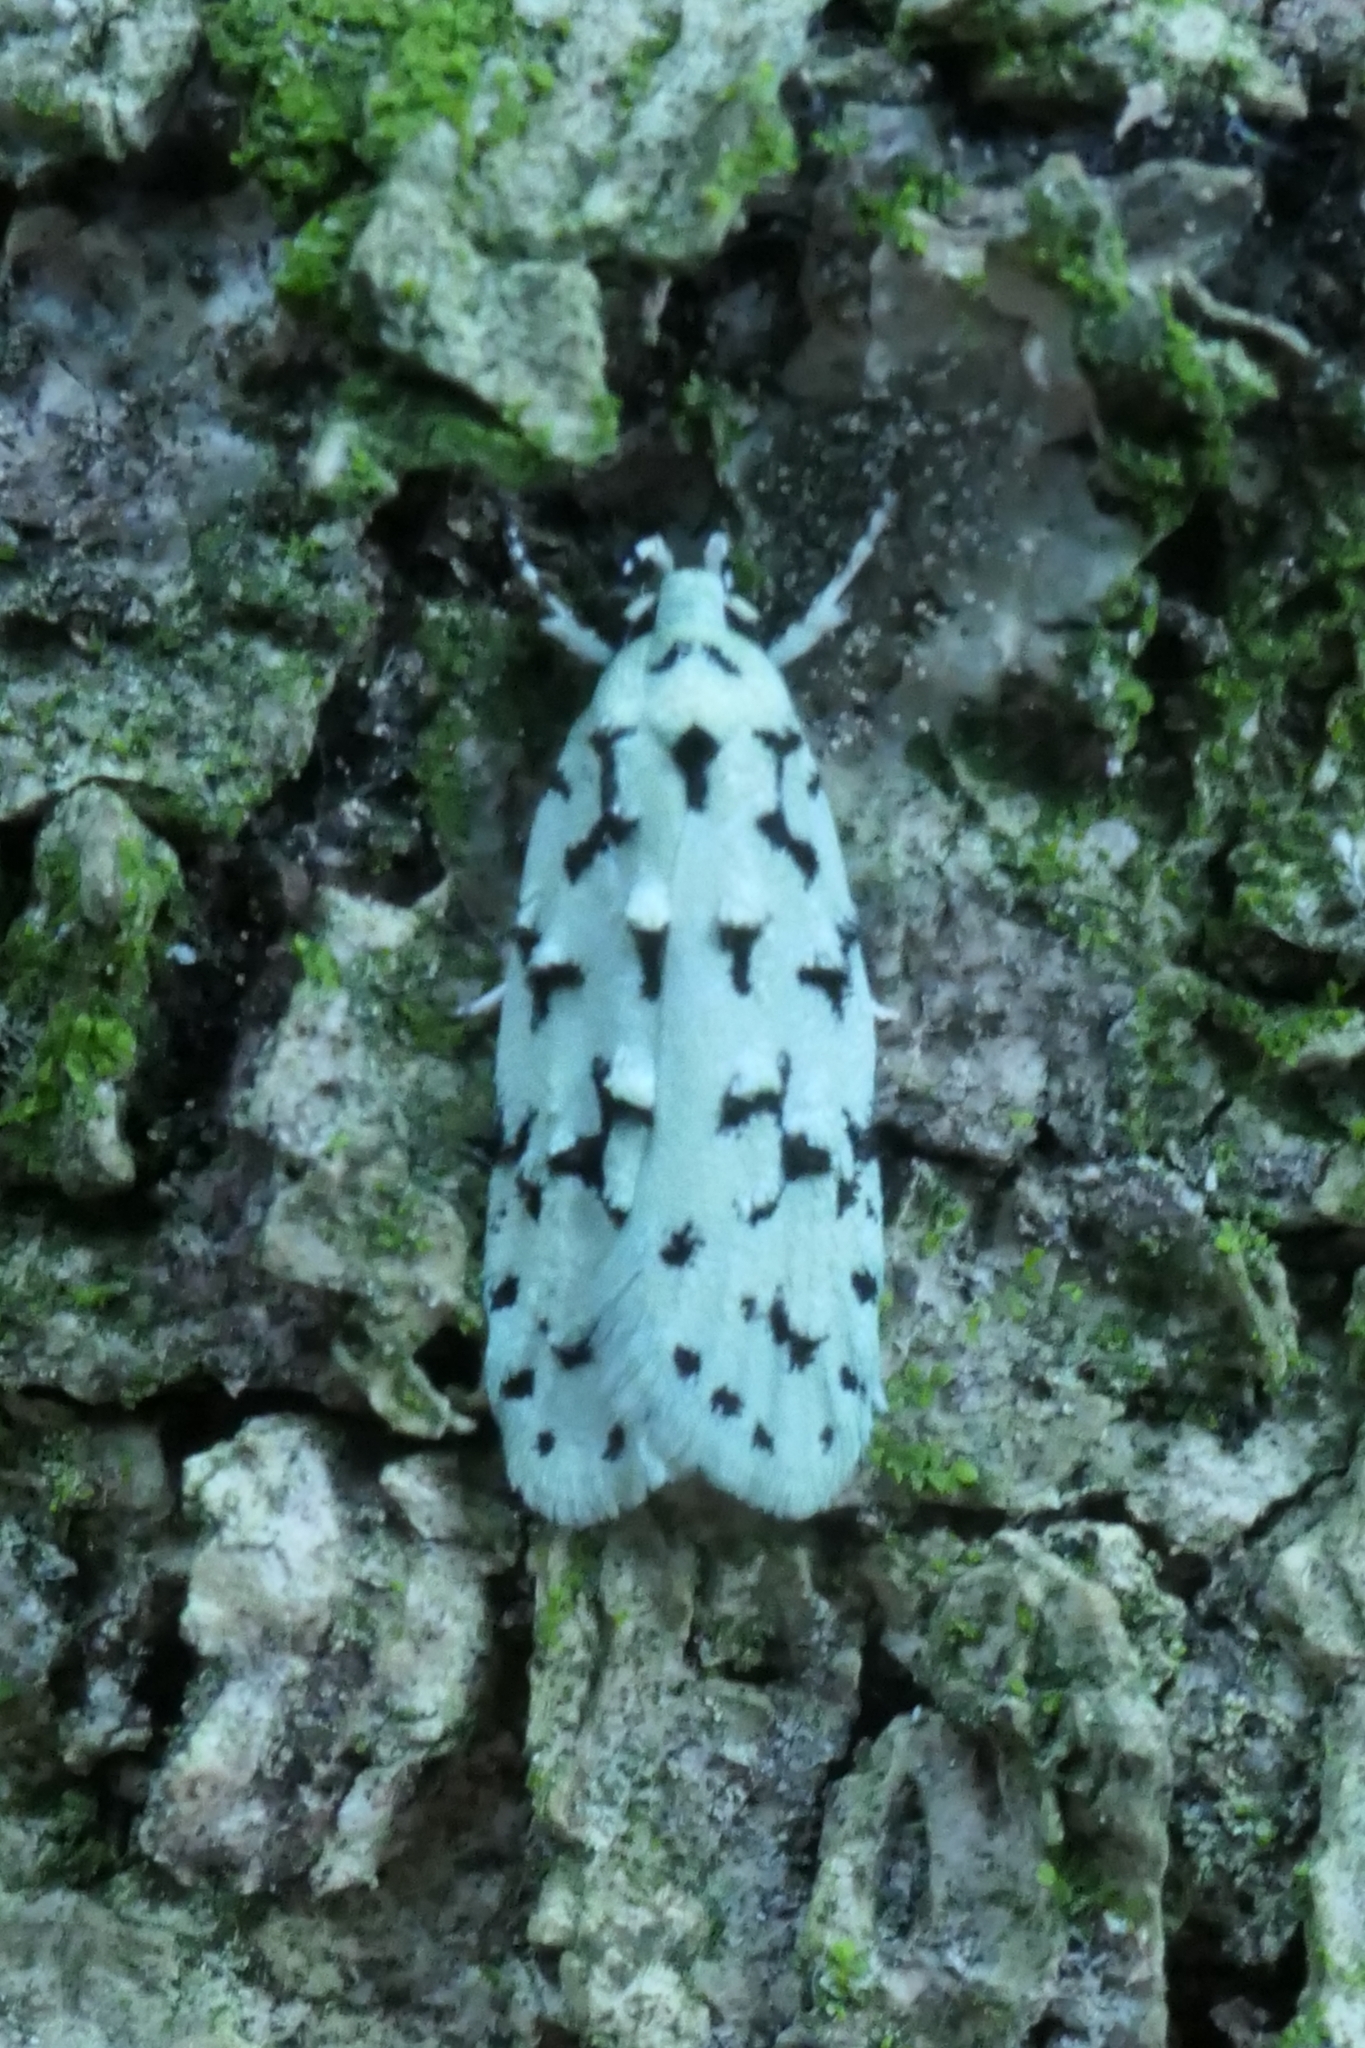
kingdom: Animalia
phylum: Arthropoda
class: Insecta
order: Lepidoptera
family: Oecophoridae
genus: Izatha
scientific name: Izatha huttoni
